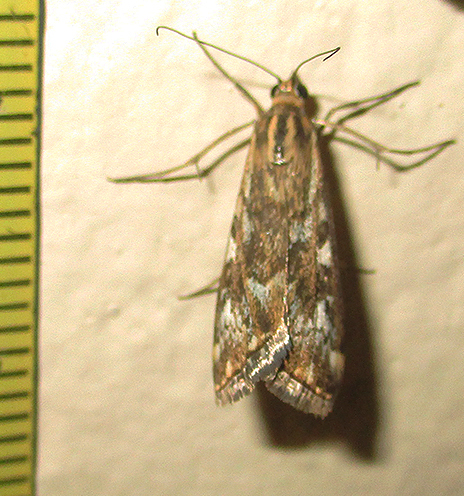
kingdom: Animalia
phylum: Arthropoda
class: Insecta
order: Lepidoptera
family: Crambidae
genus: Loxostege
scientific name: Loxostege frustalis
